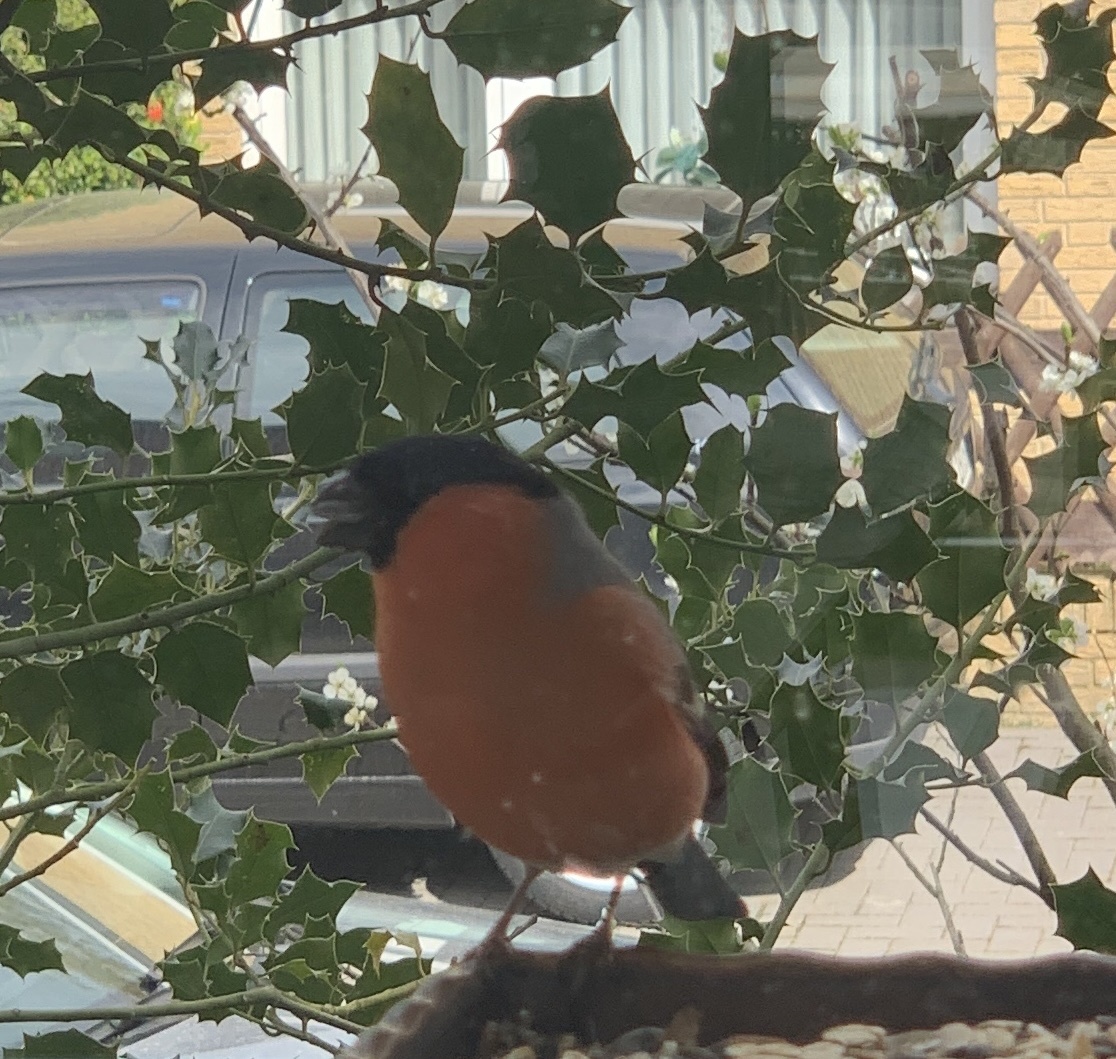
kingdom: Animalia
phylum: Chordata
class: Aves
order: Passeriformes
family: Fringillidae
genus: Pyrrhula
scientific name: Pyrrhula pyrrhula
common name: Eurasian bullfinch
